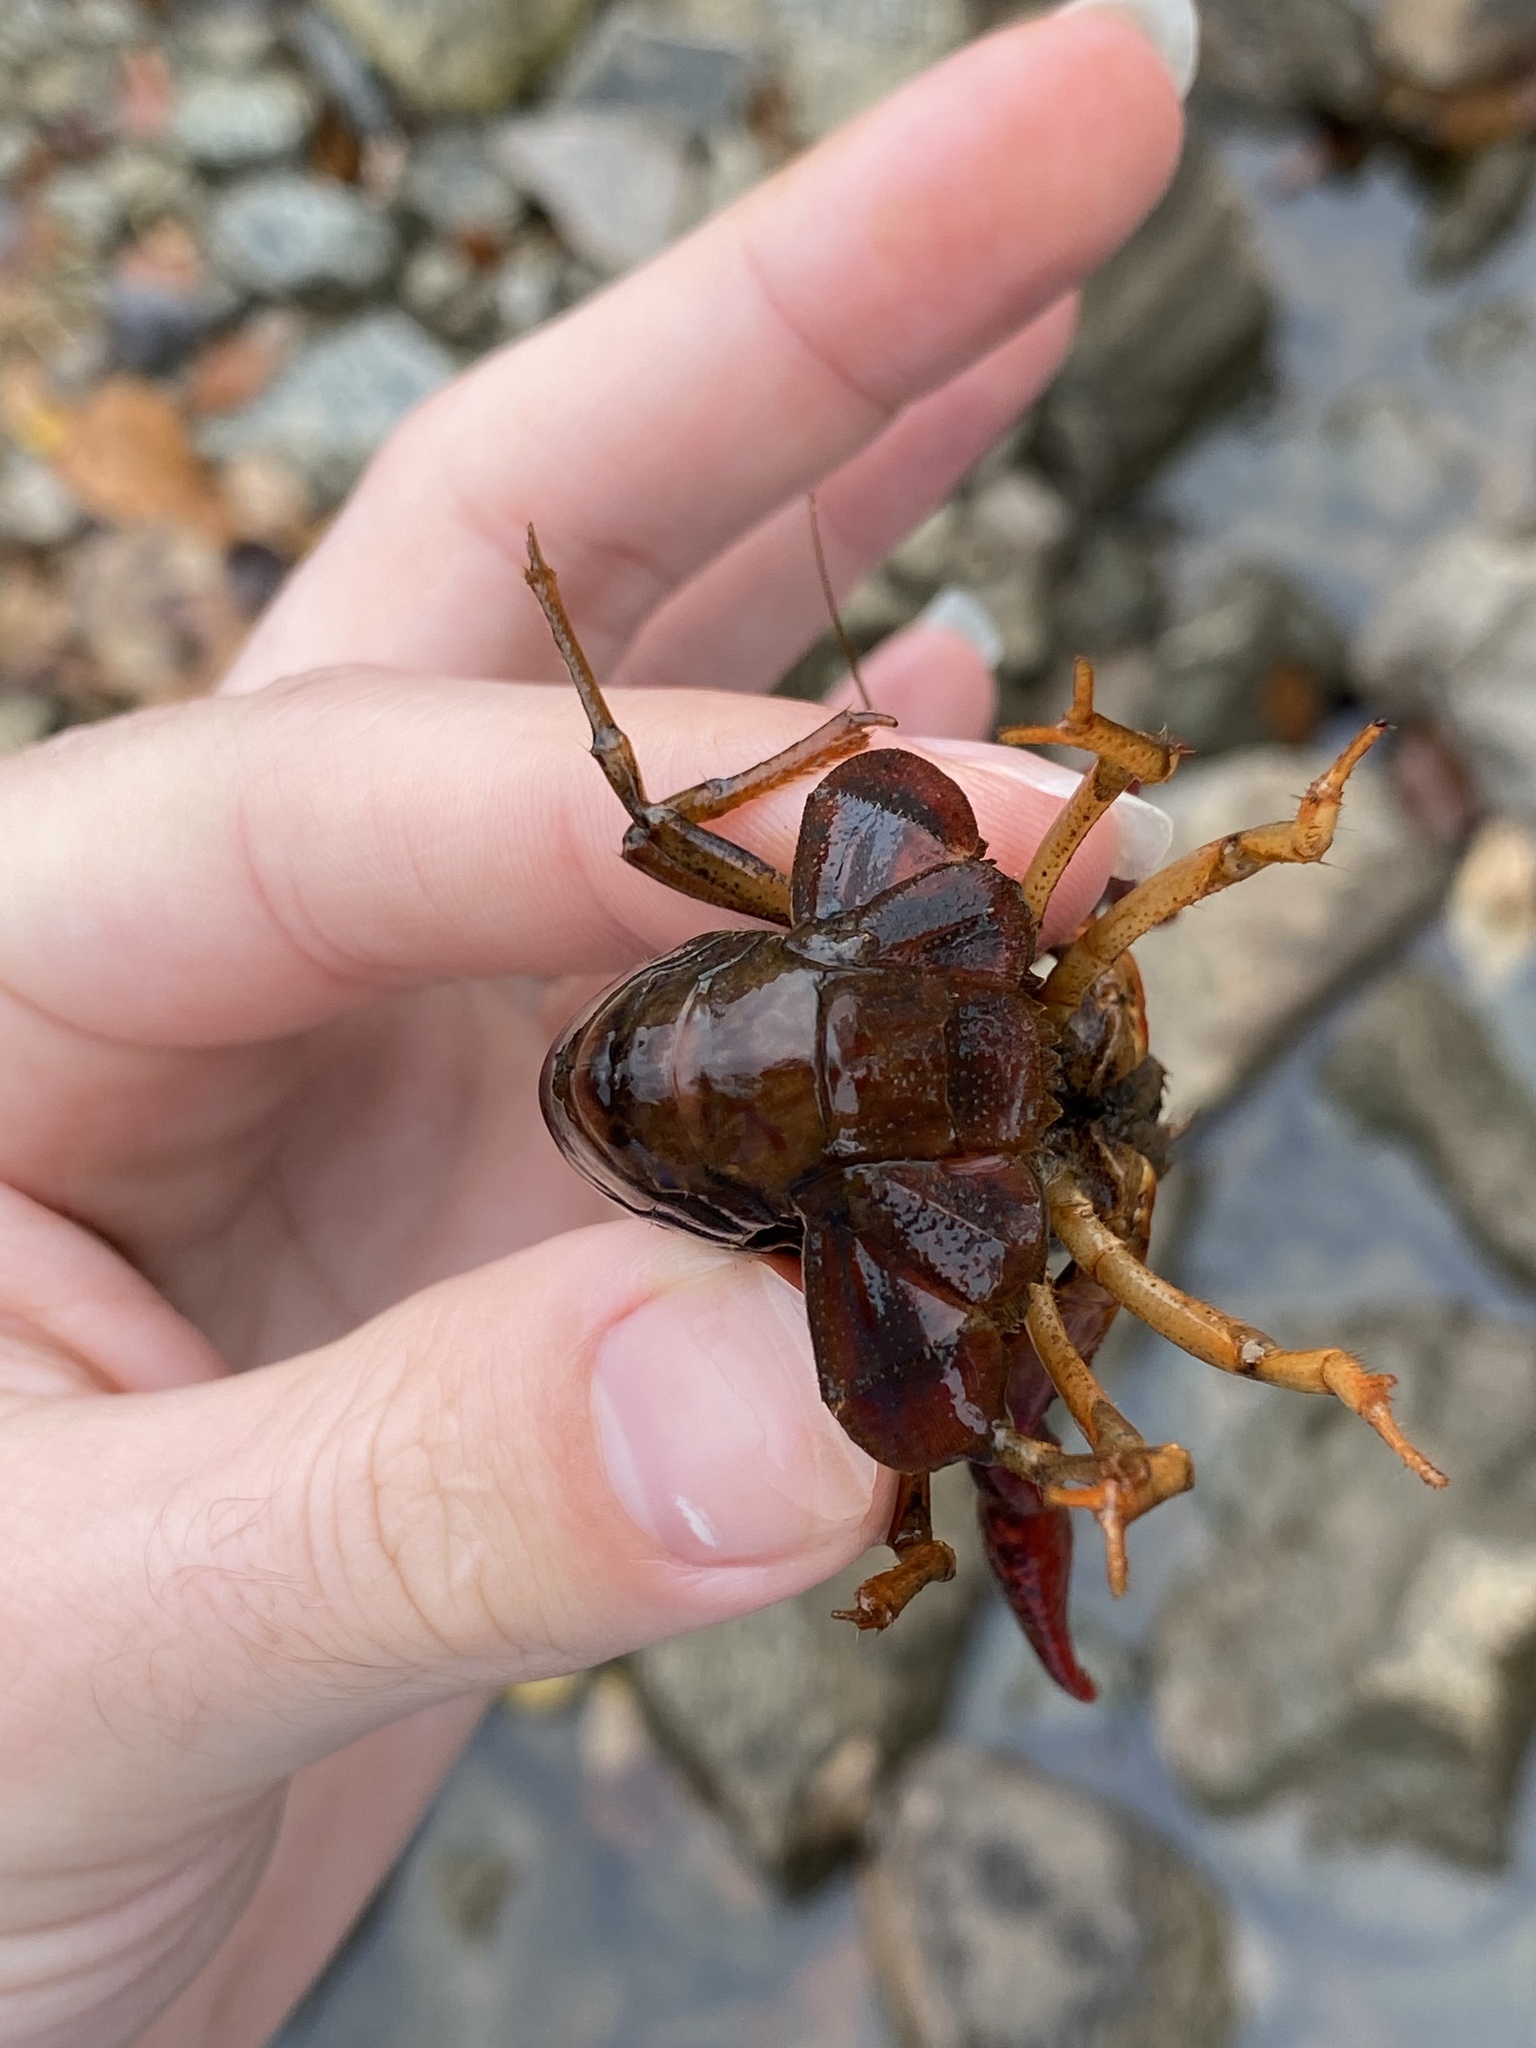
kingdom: Animalia
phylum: Arthropoda
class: Malacostraca
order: Decapoda
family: Cambaridae
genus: Procambarus
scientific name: Procambarus clarkii
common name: Red swamp crayfish
